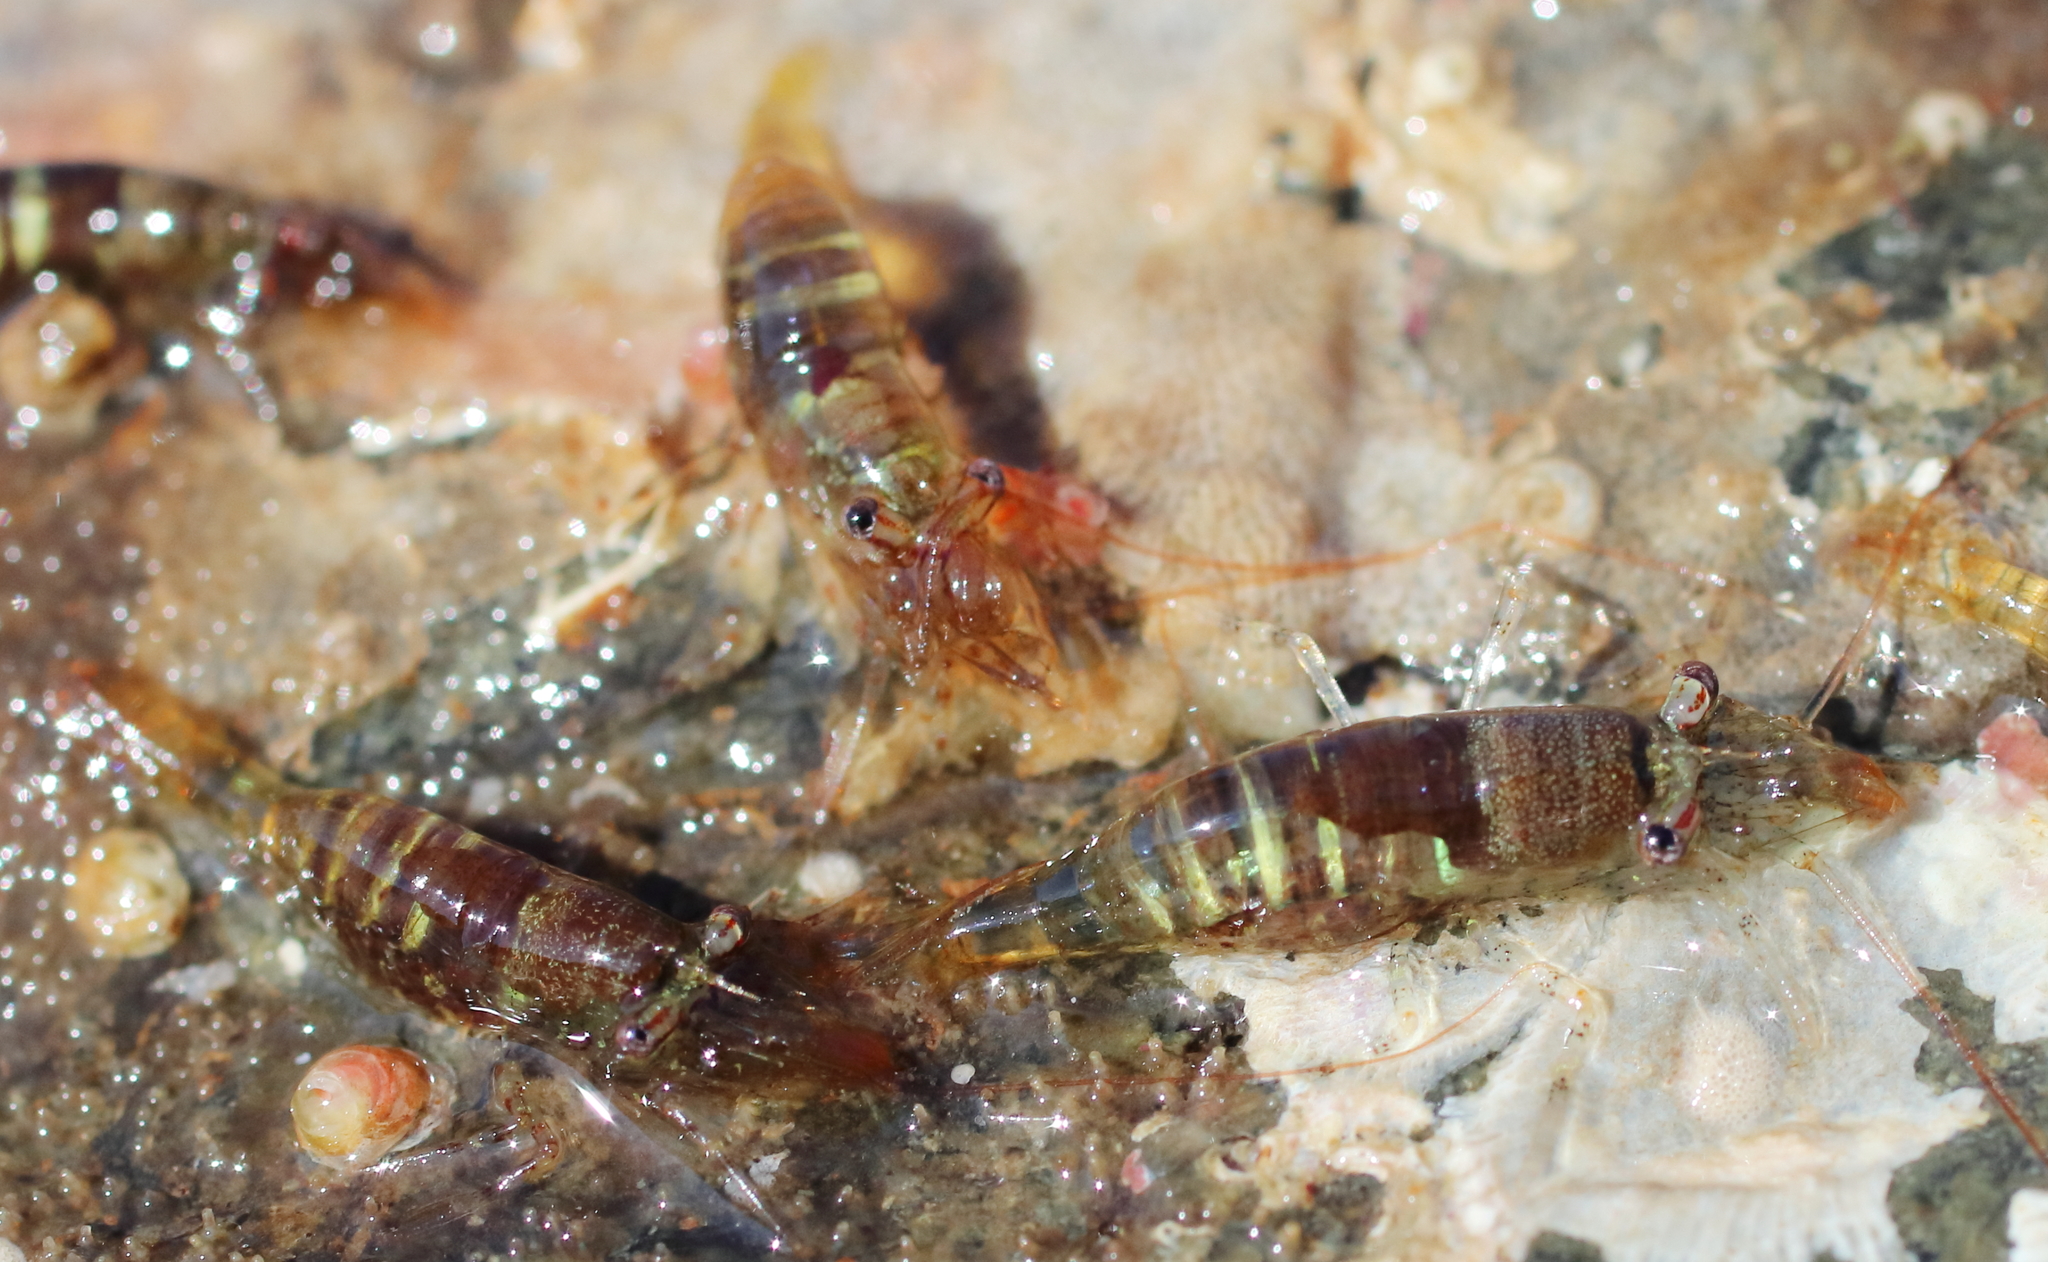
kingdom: Animalia
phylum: Arthropoda
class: Malacostraca
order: Decapoda
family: Thoridae
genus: Heptacarpus
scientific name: Heptacarpus pugettensis
